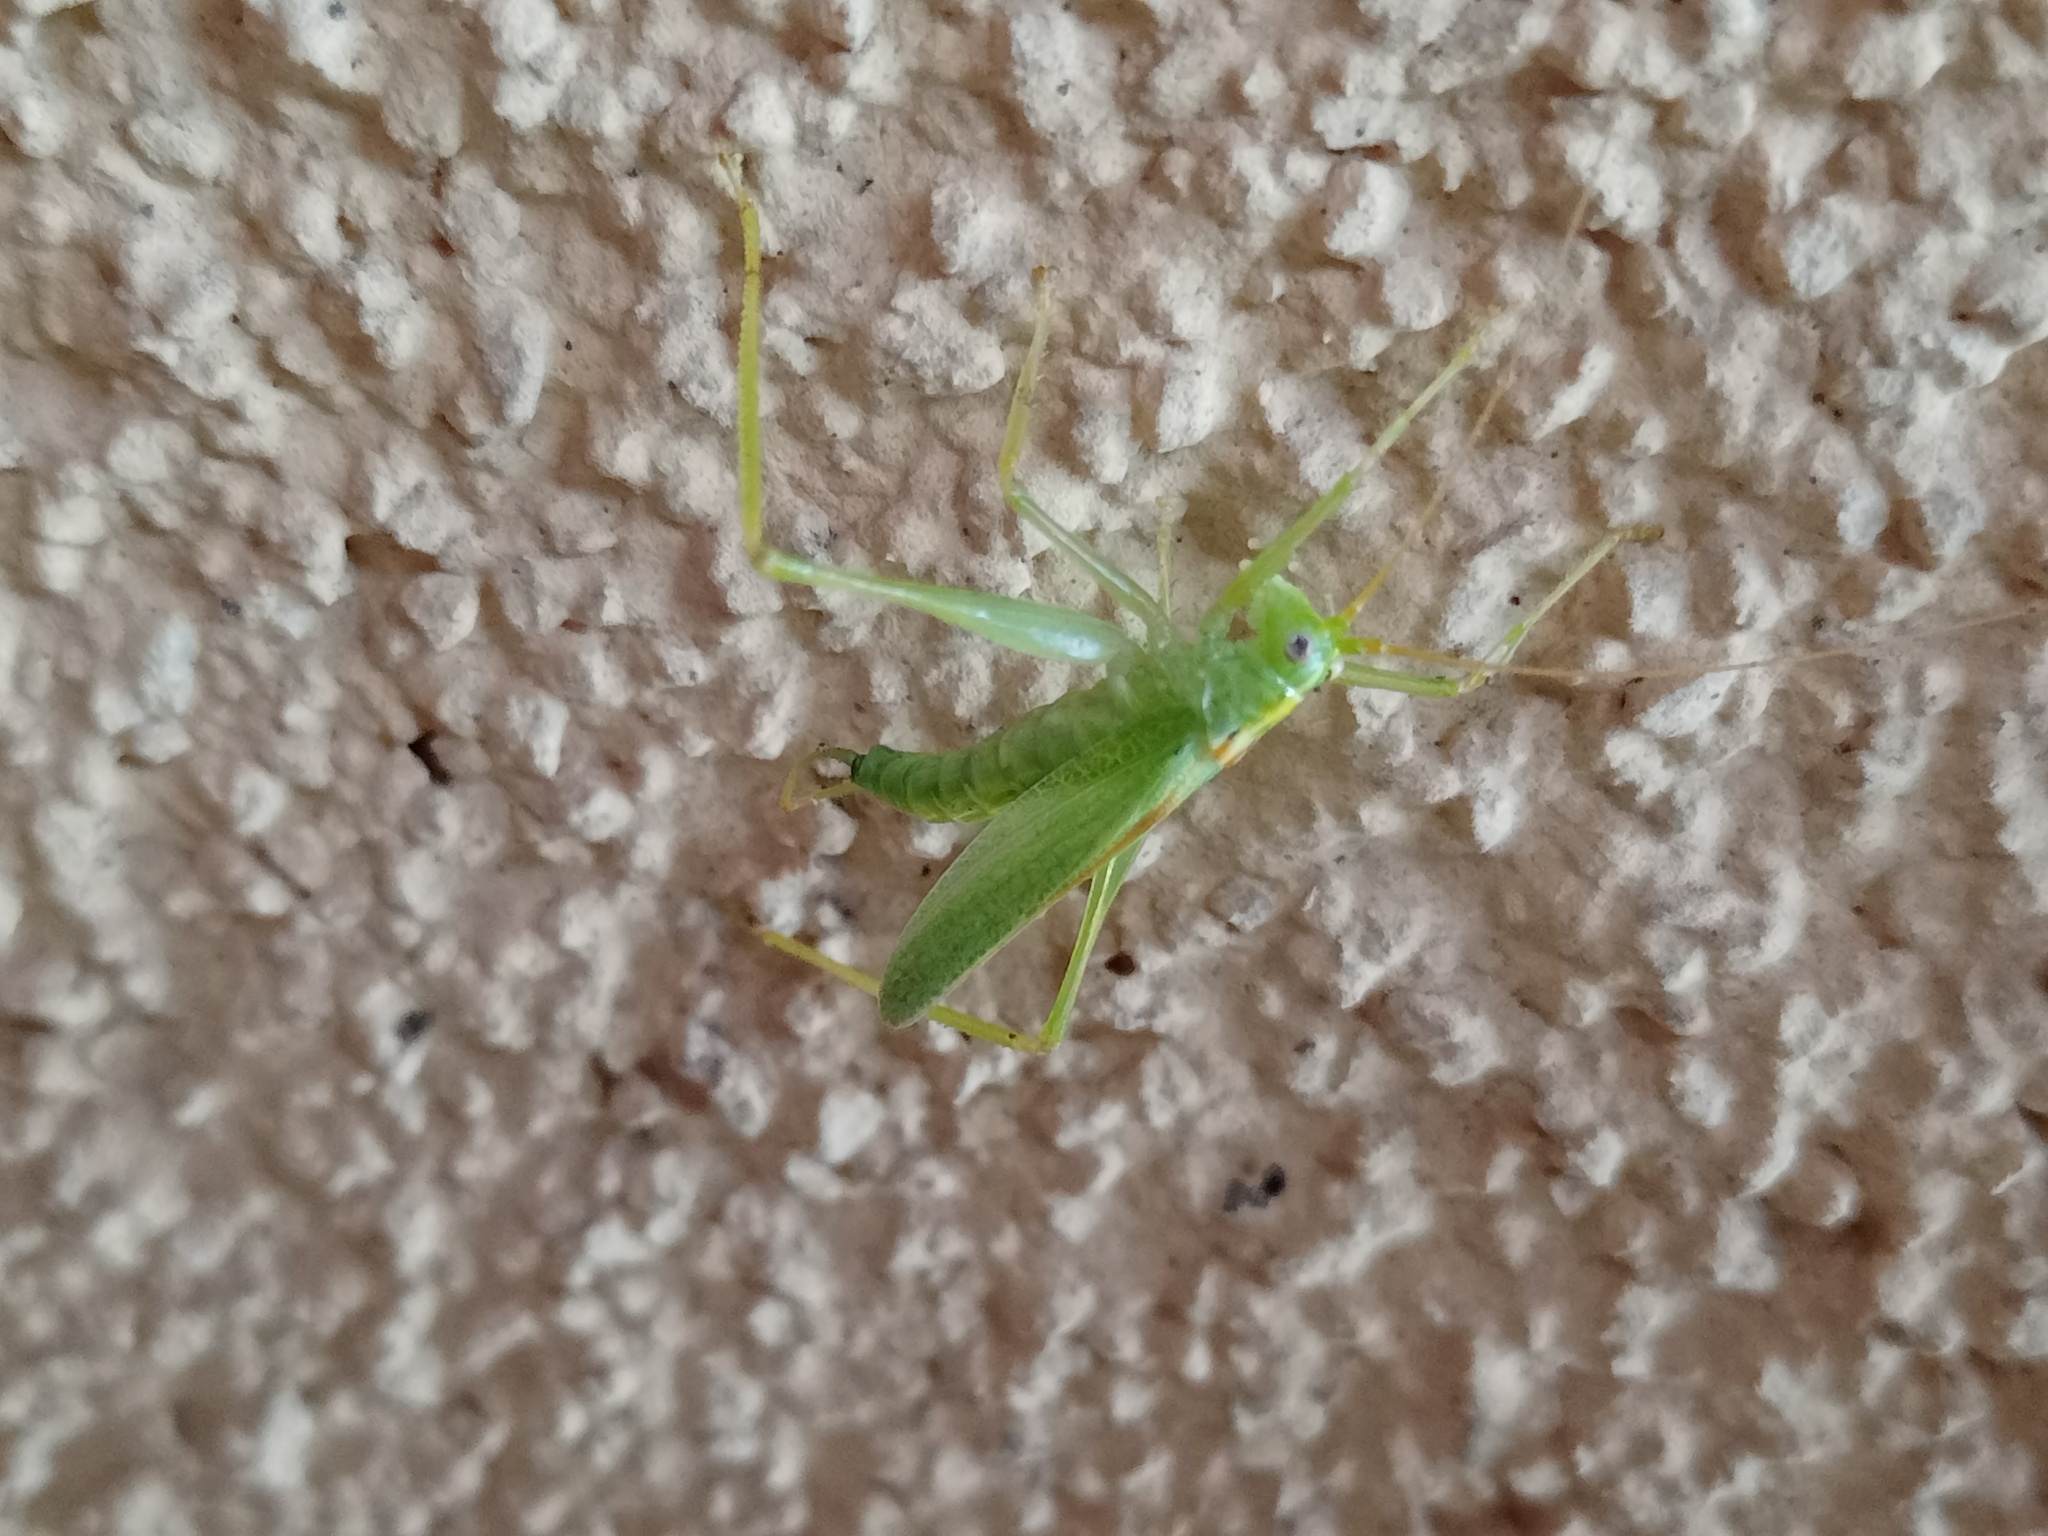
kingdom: Animalia
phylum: Arthropoda
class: Insecta
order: Orthoptera
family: Tettigoniidae
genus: Meconema
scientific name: Meconema thalassinum
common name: Oak bush-cricket
